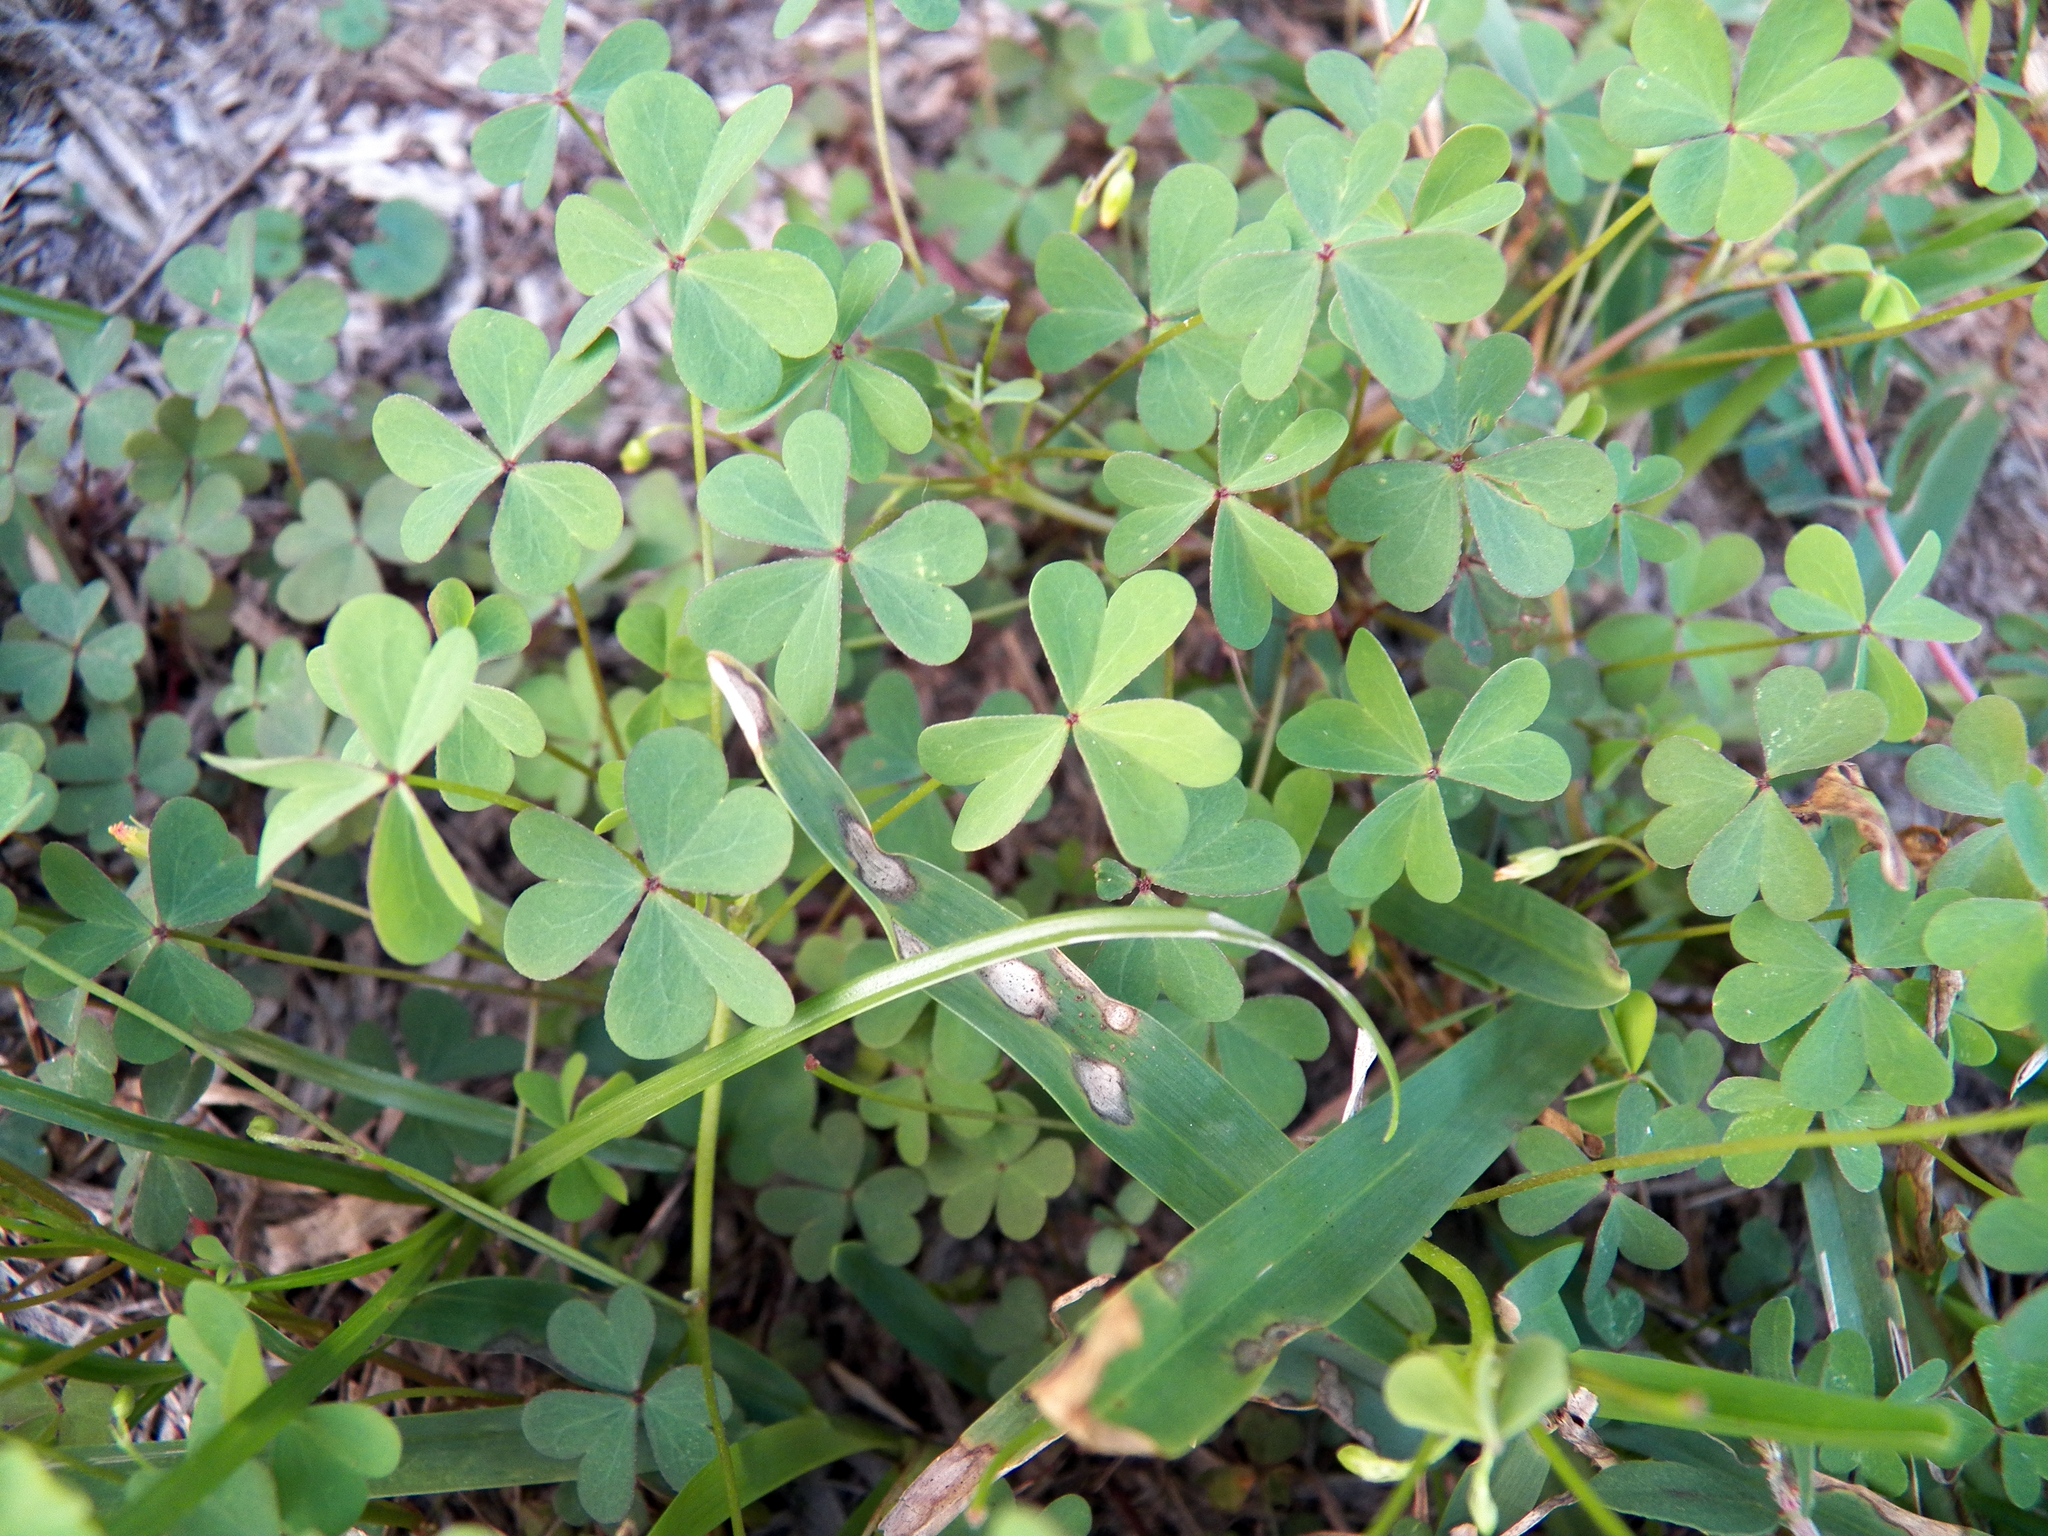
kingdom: Plantae
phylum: Tracheophyta
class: Magnoliopsida
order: Oxalidales
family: Oxalidaceae
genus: Oxalis
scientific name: Oxalis dillenii
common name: Sussex yellow-sorrel
